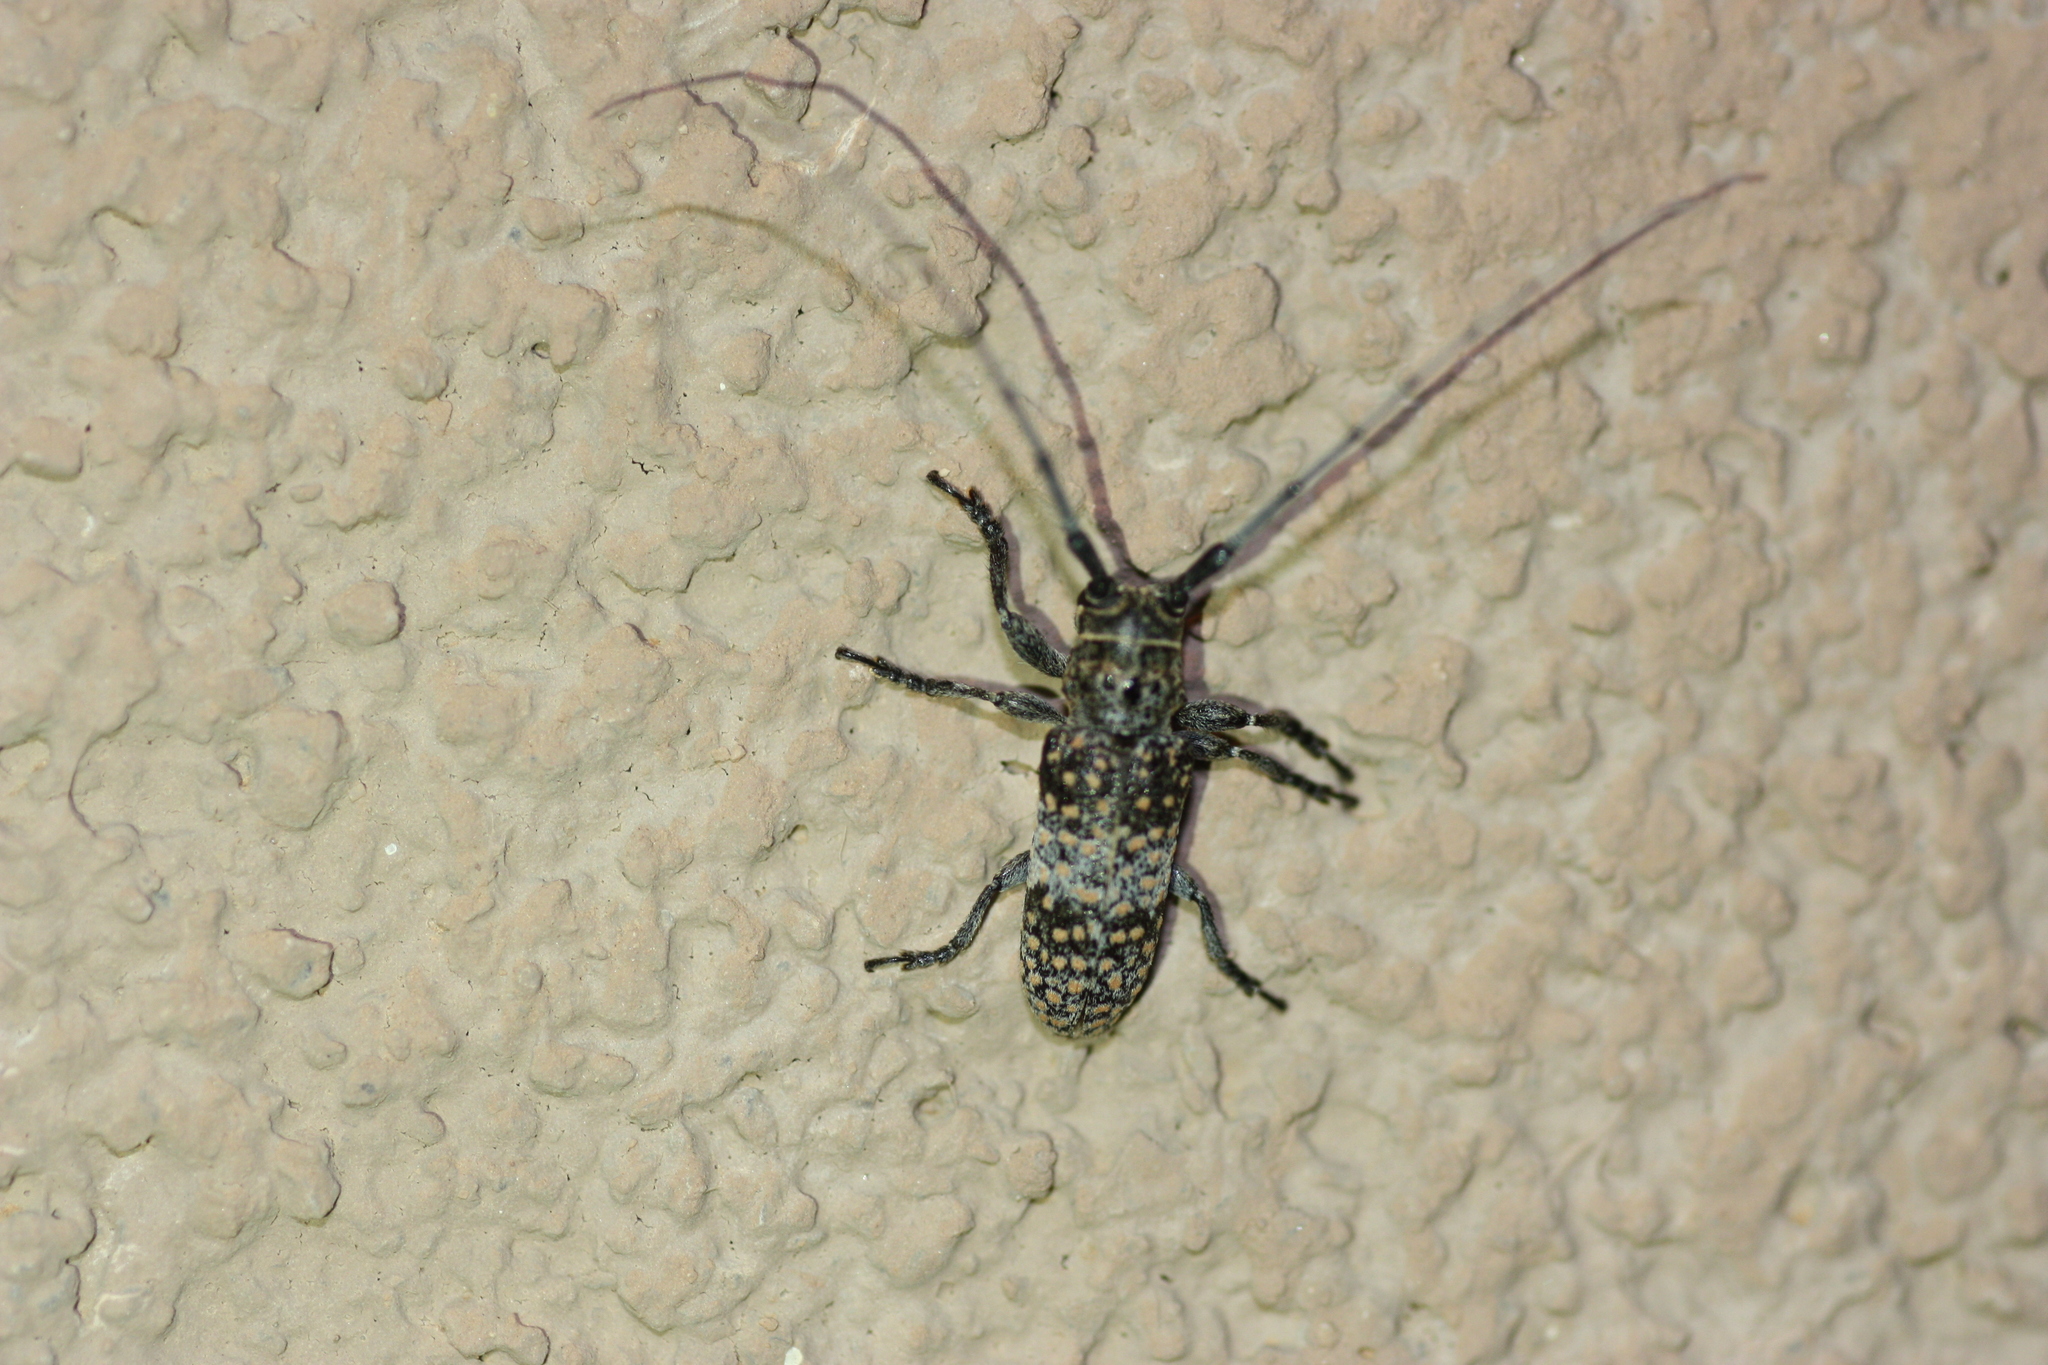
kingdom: Animalia
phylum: Arthropoda
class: Insecta
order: Coleoptera
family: Cerambycidae
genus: Oncideres
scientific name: Oncideres rhodosticta
